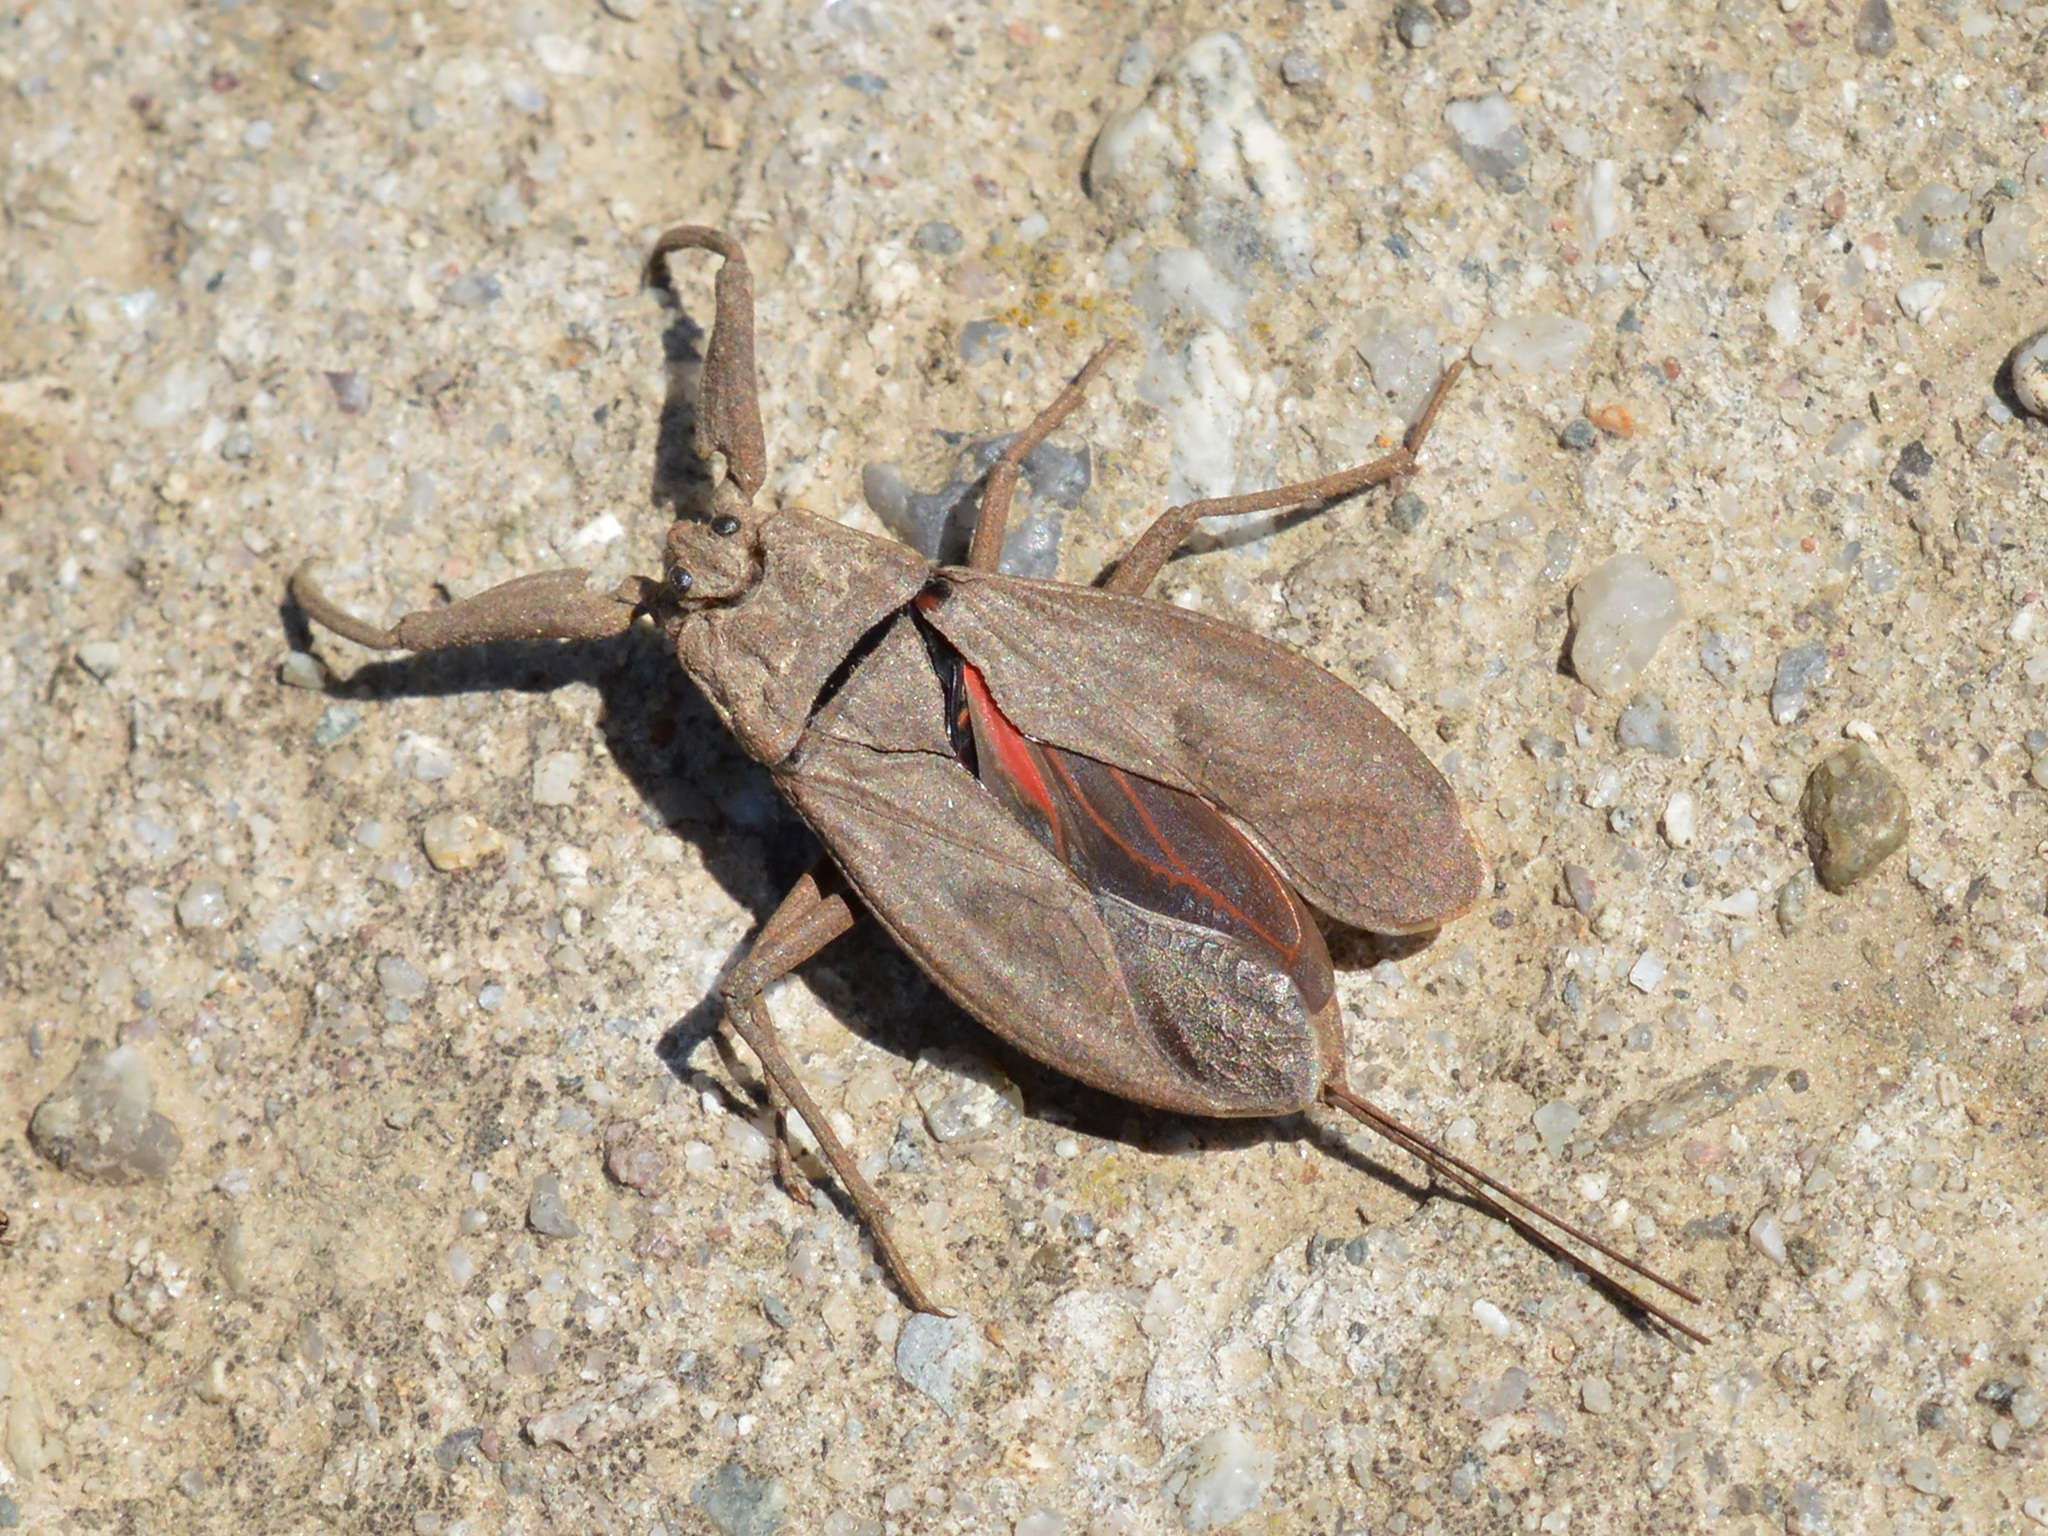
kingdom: Animalia
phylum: Arthropoda
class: Insecta
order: Hemiptera
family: Nepidae
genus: Nepa
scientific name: Nepa cinerea
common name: Water scorpion
